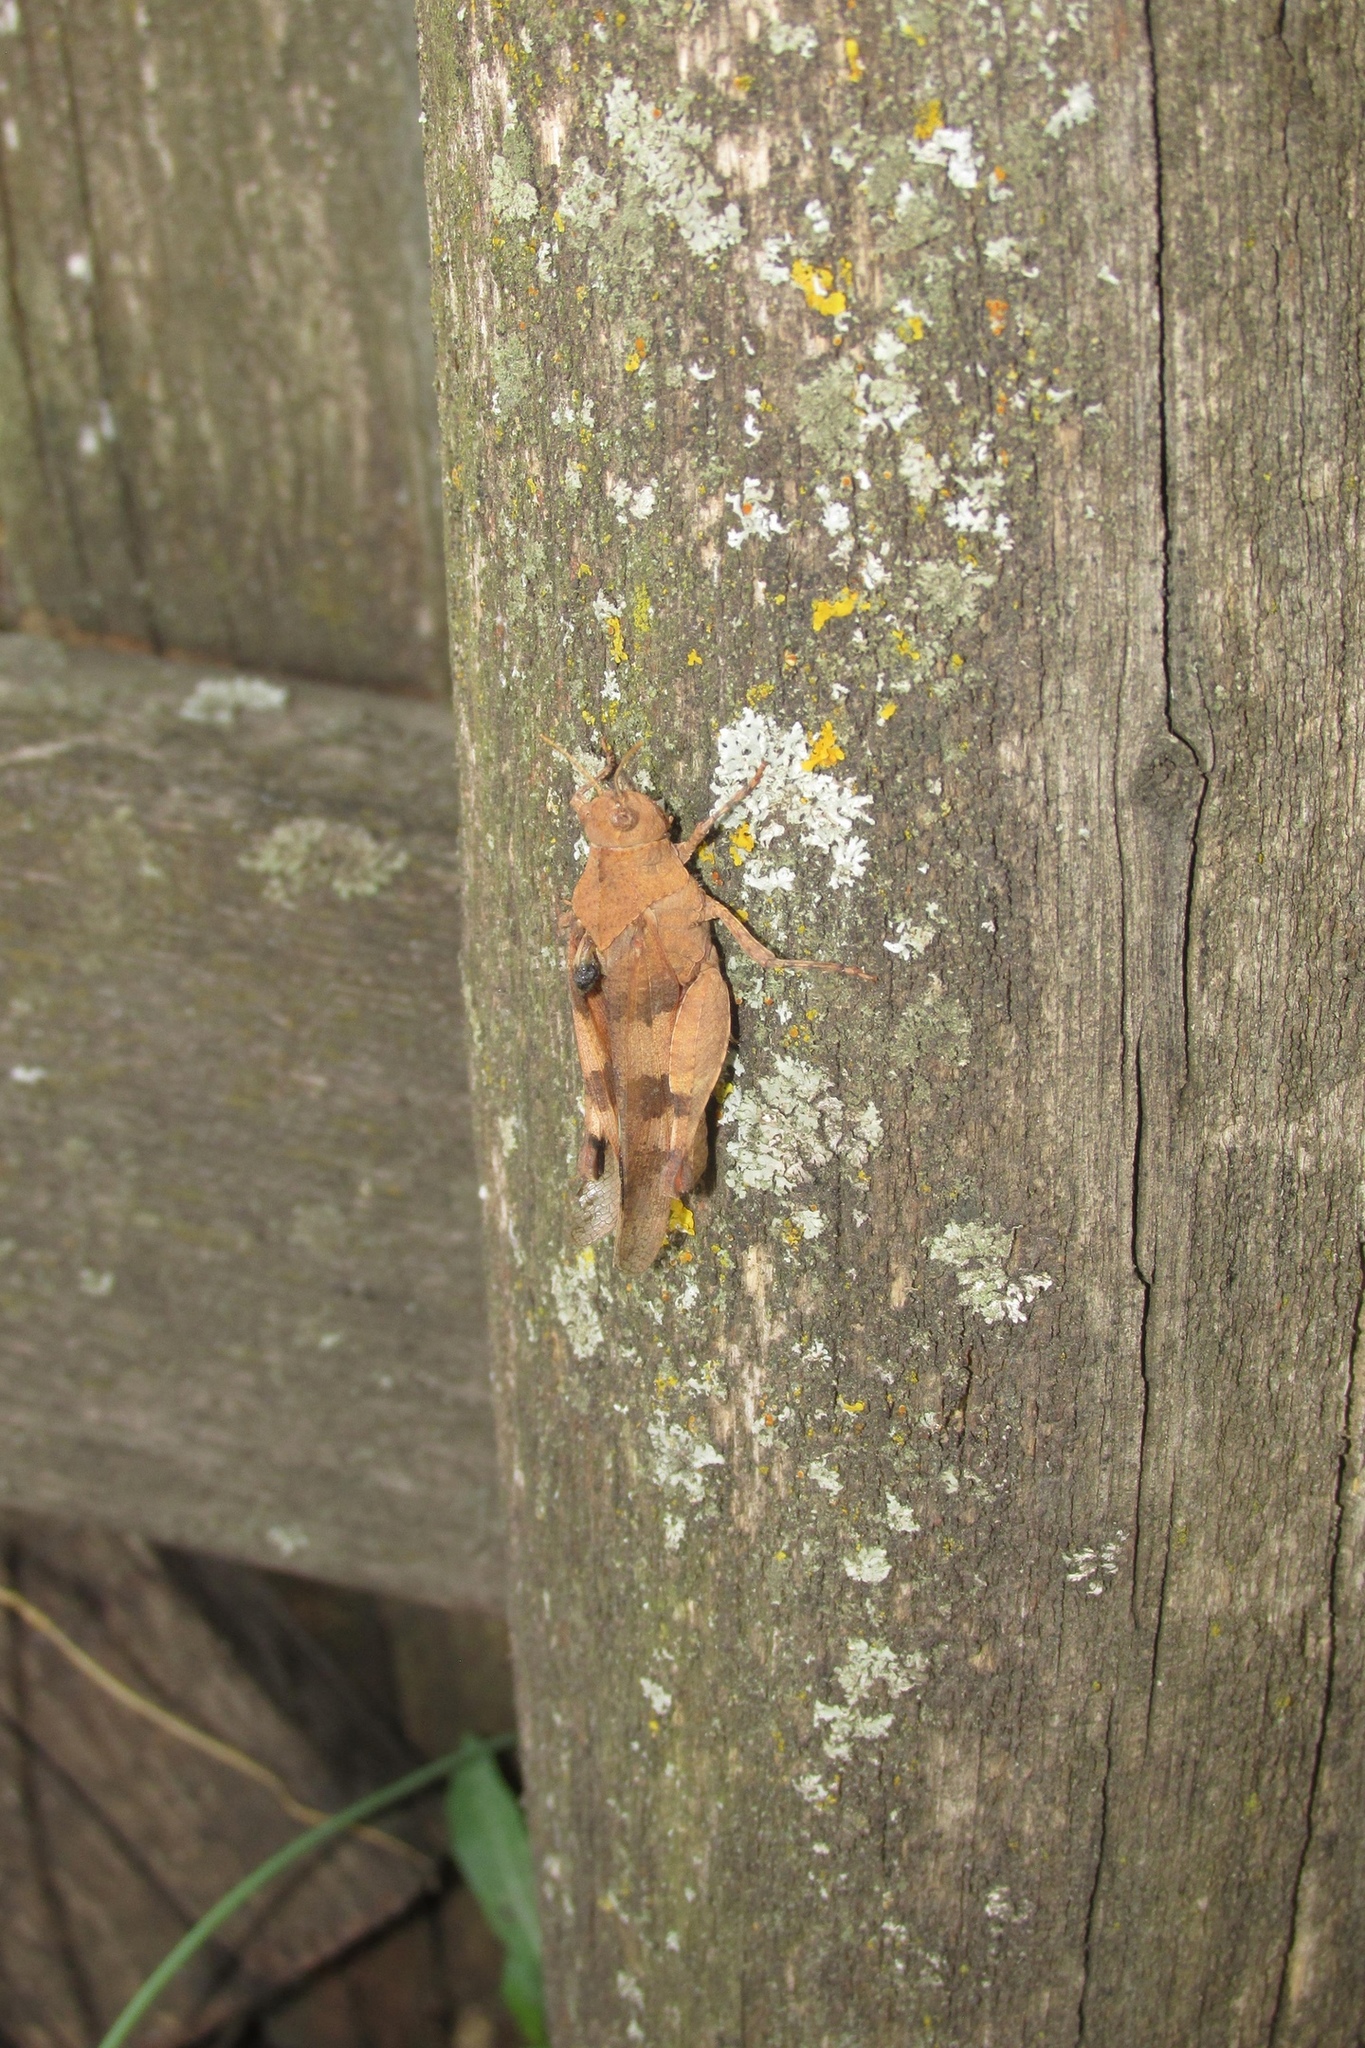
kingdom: Animalia
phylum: Arthropoda
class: Insecta
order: Orthoptera
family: Acrididae
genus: Oedipoda
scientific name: Oedipoda caerulescens
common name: Blue-winged grasshopper
